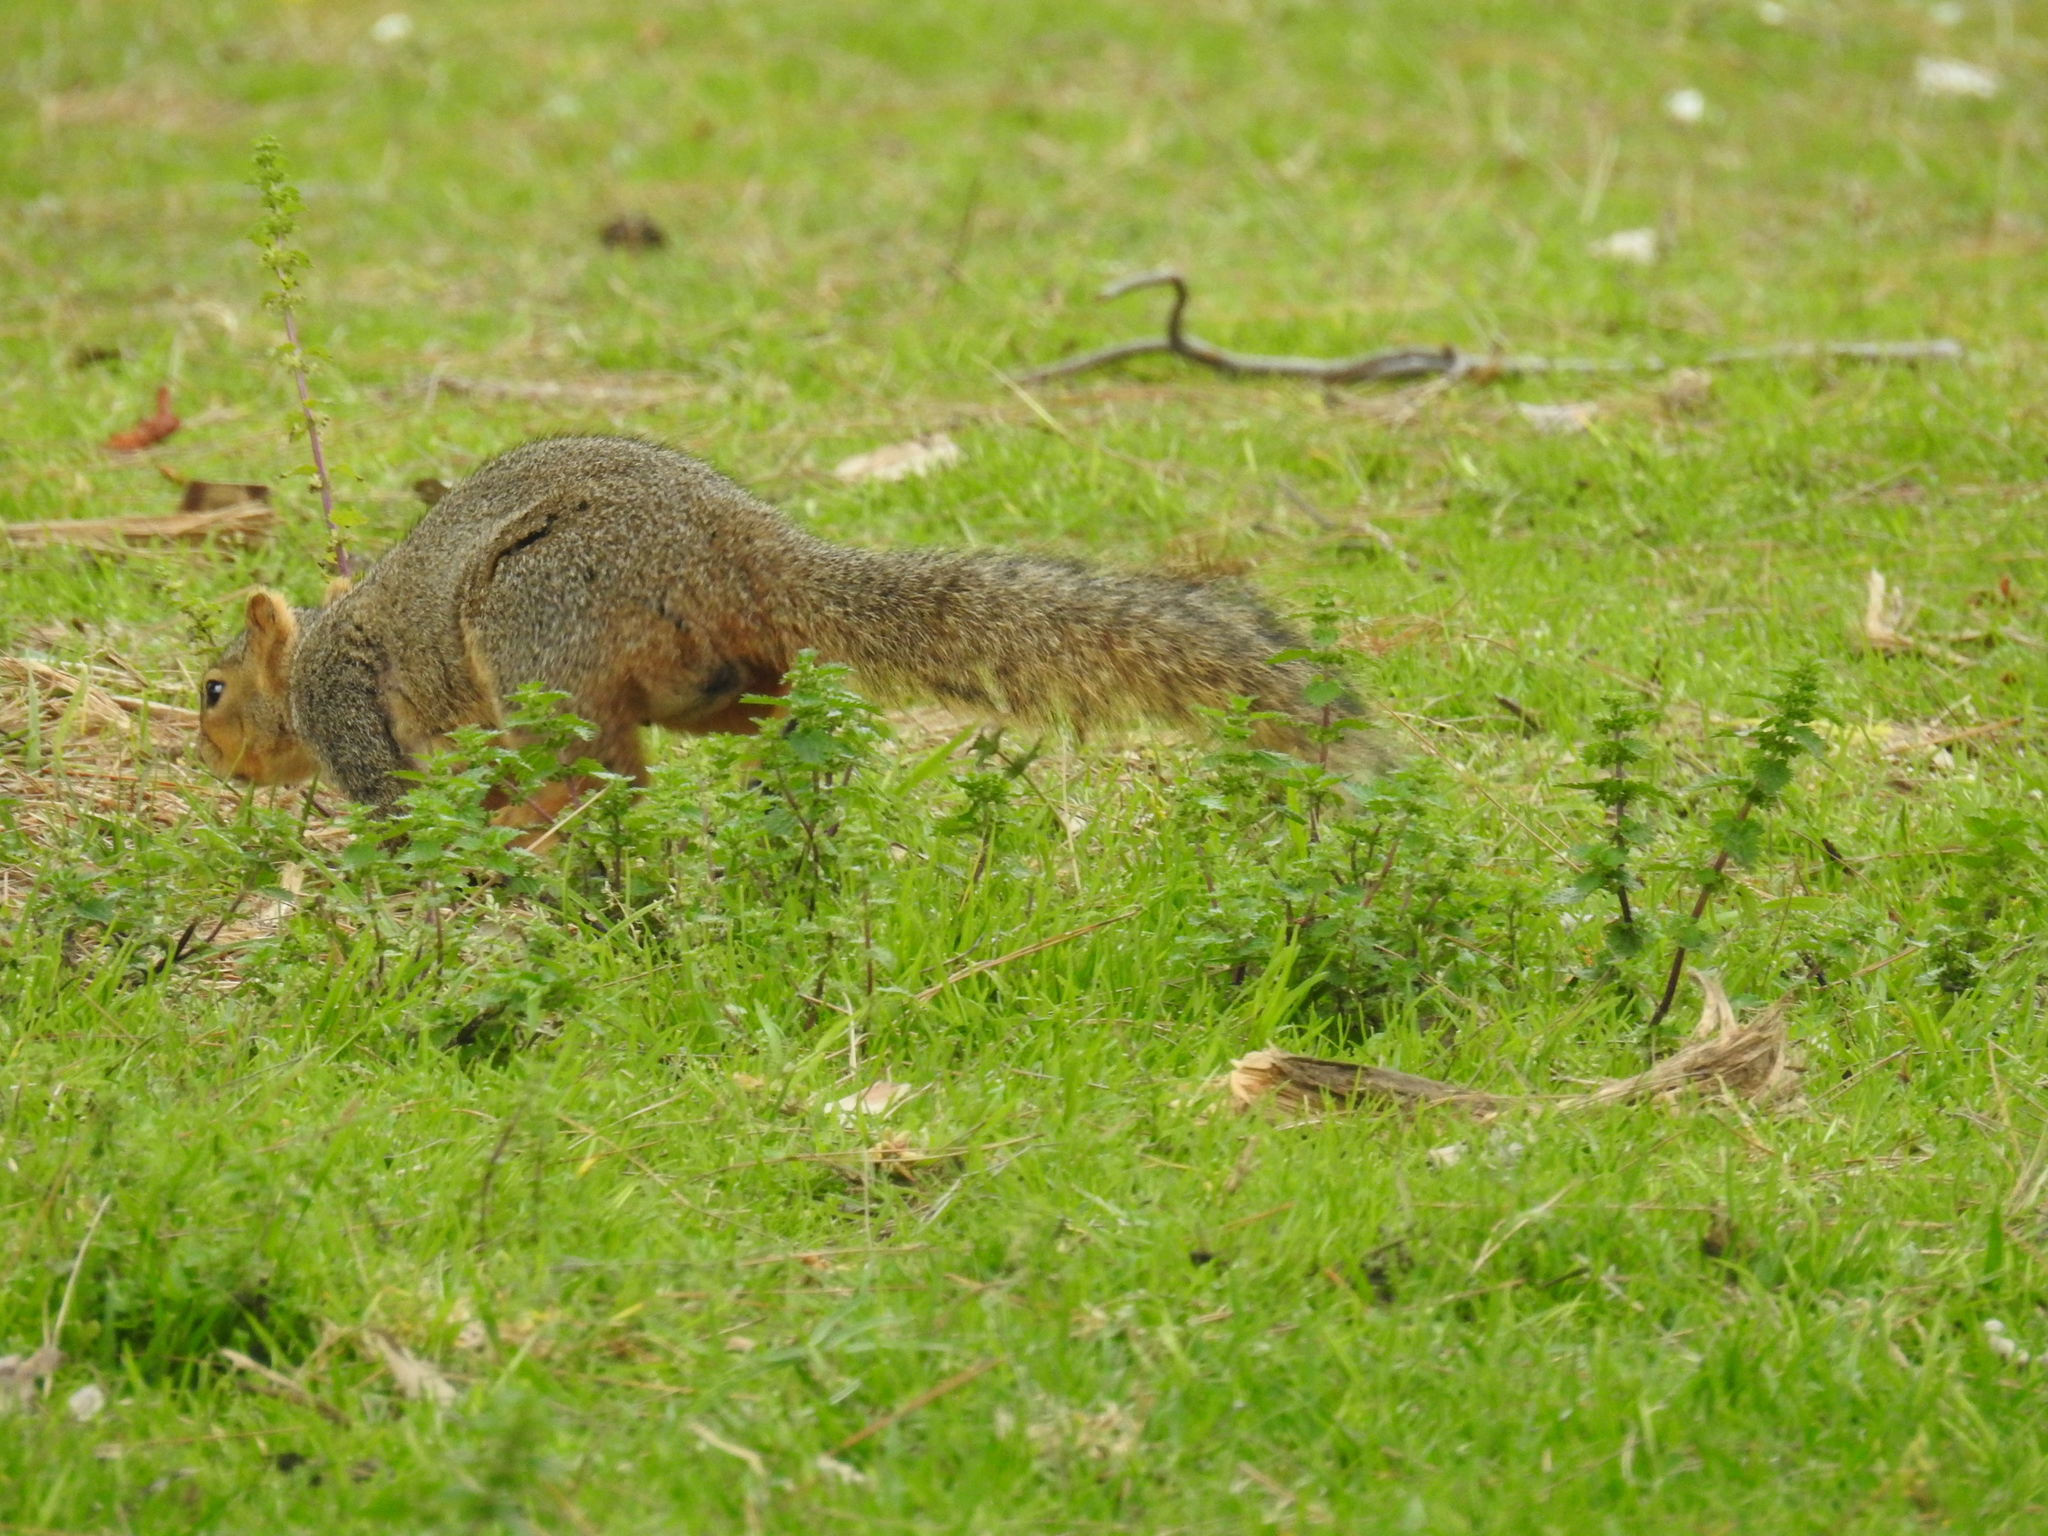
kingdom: Animalia
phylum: Chordata
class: Mammalia
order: Rodentia
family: Sciuridae
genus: Sciurus
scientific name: Sciurus niger
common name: Fox squirrel
